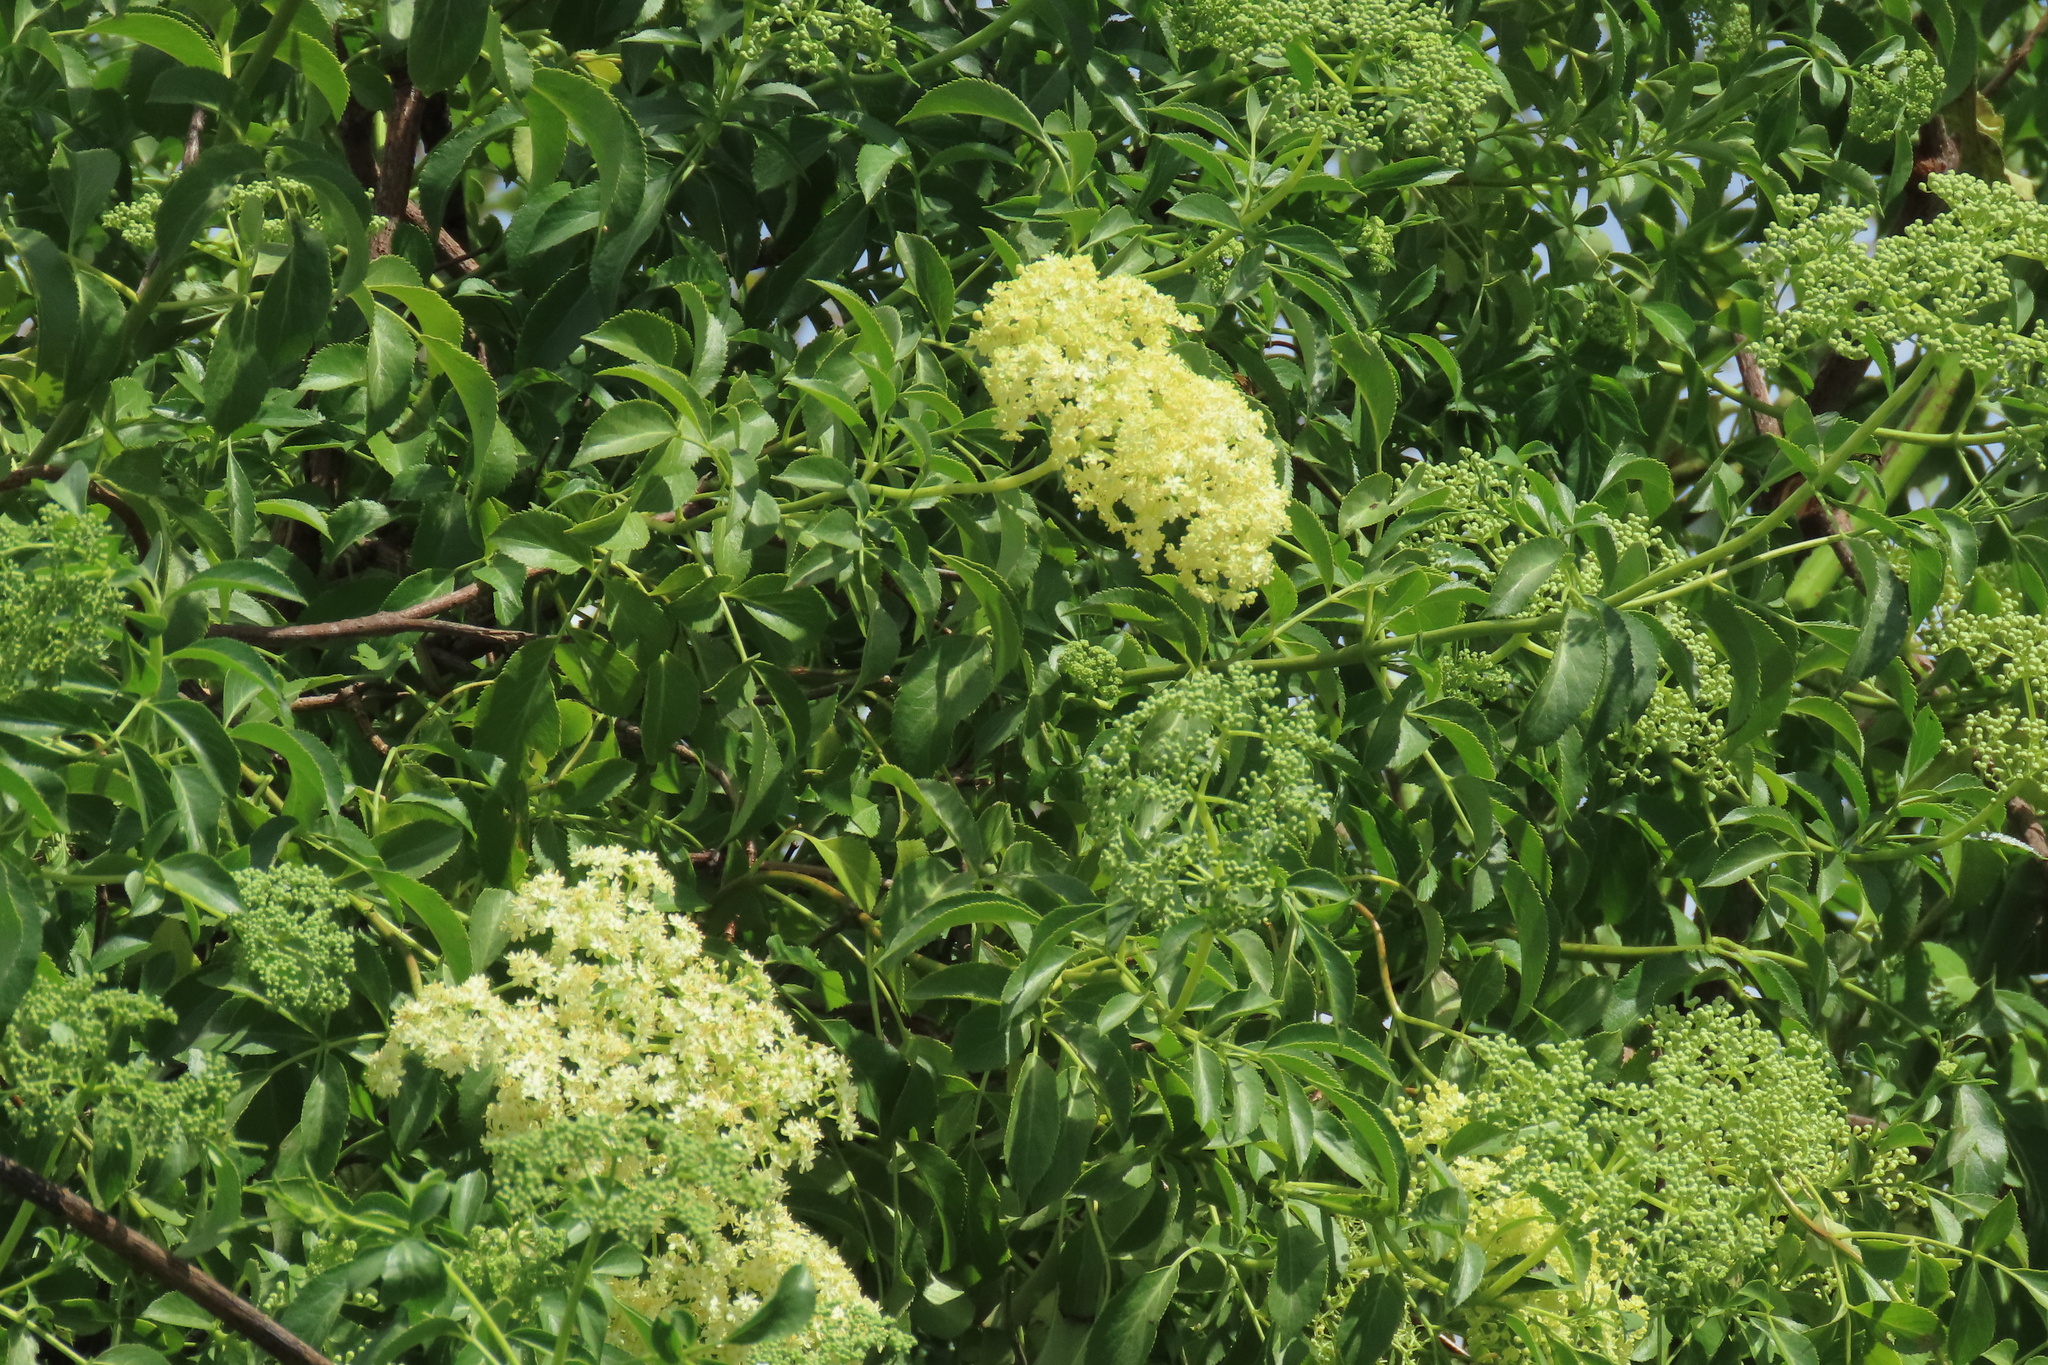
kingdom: Plantae
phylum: Tracheophyta
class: Magnoliopsida
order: Dipsacales
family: Viburnaceae
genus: Sambucus
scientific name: Sambucus cerulea
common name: Blue elder
